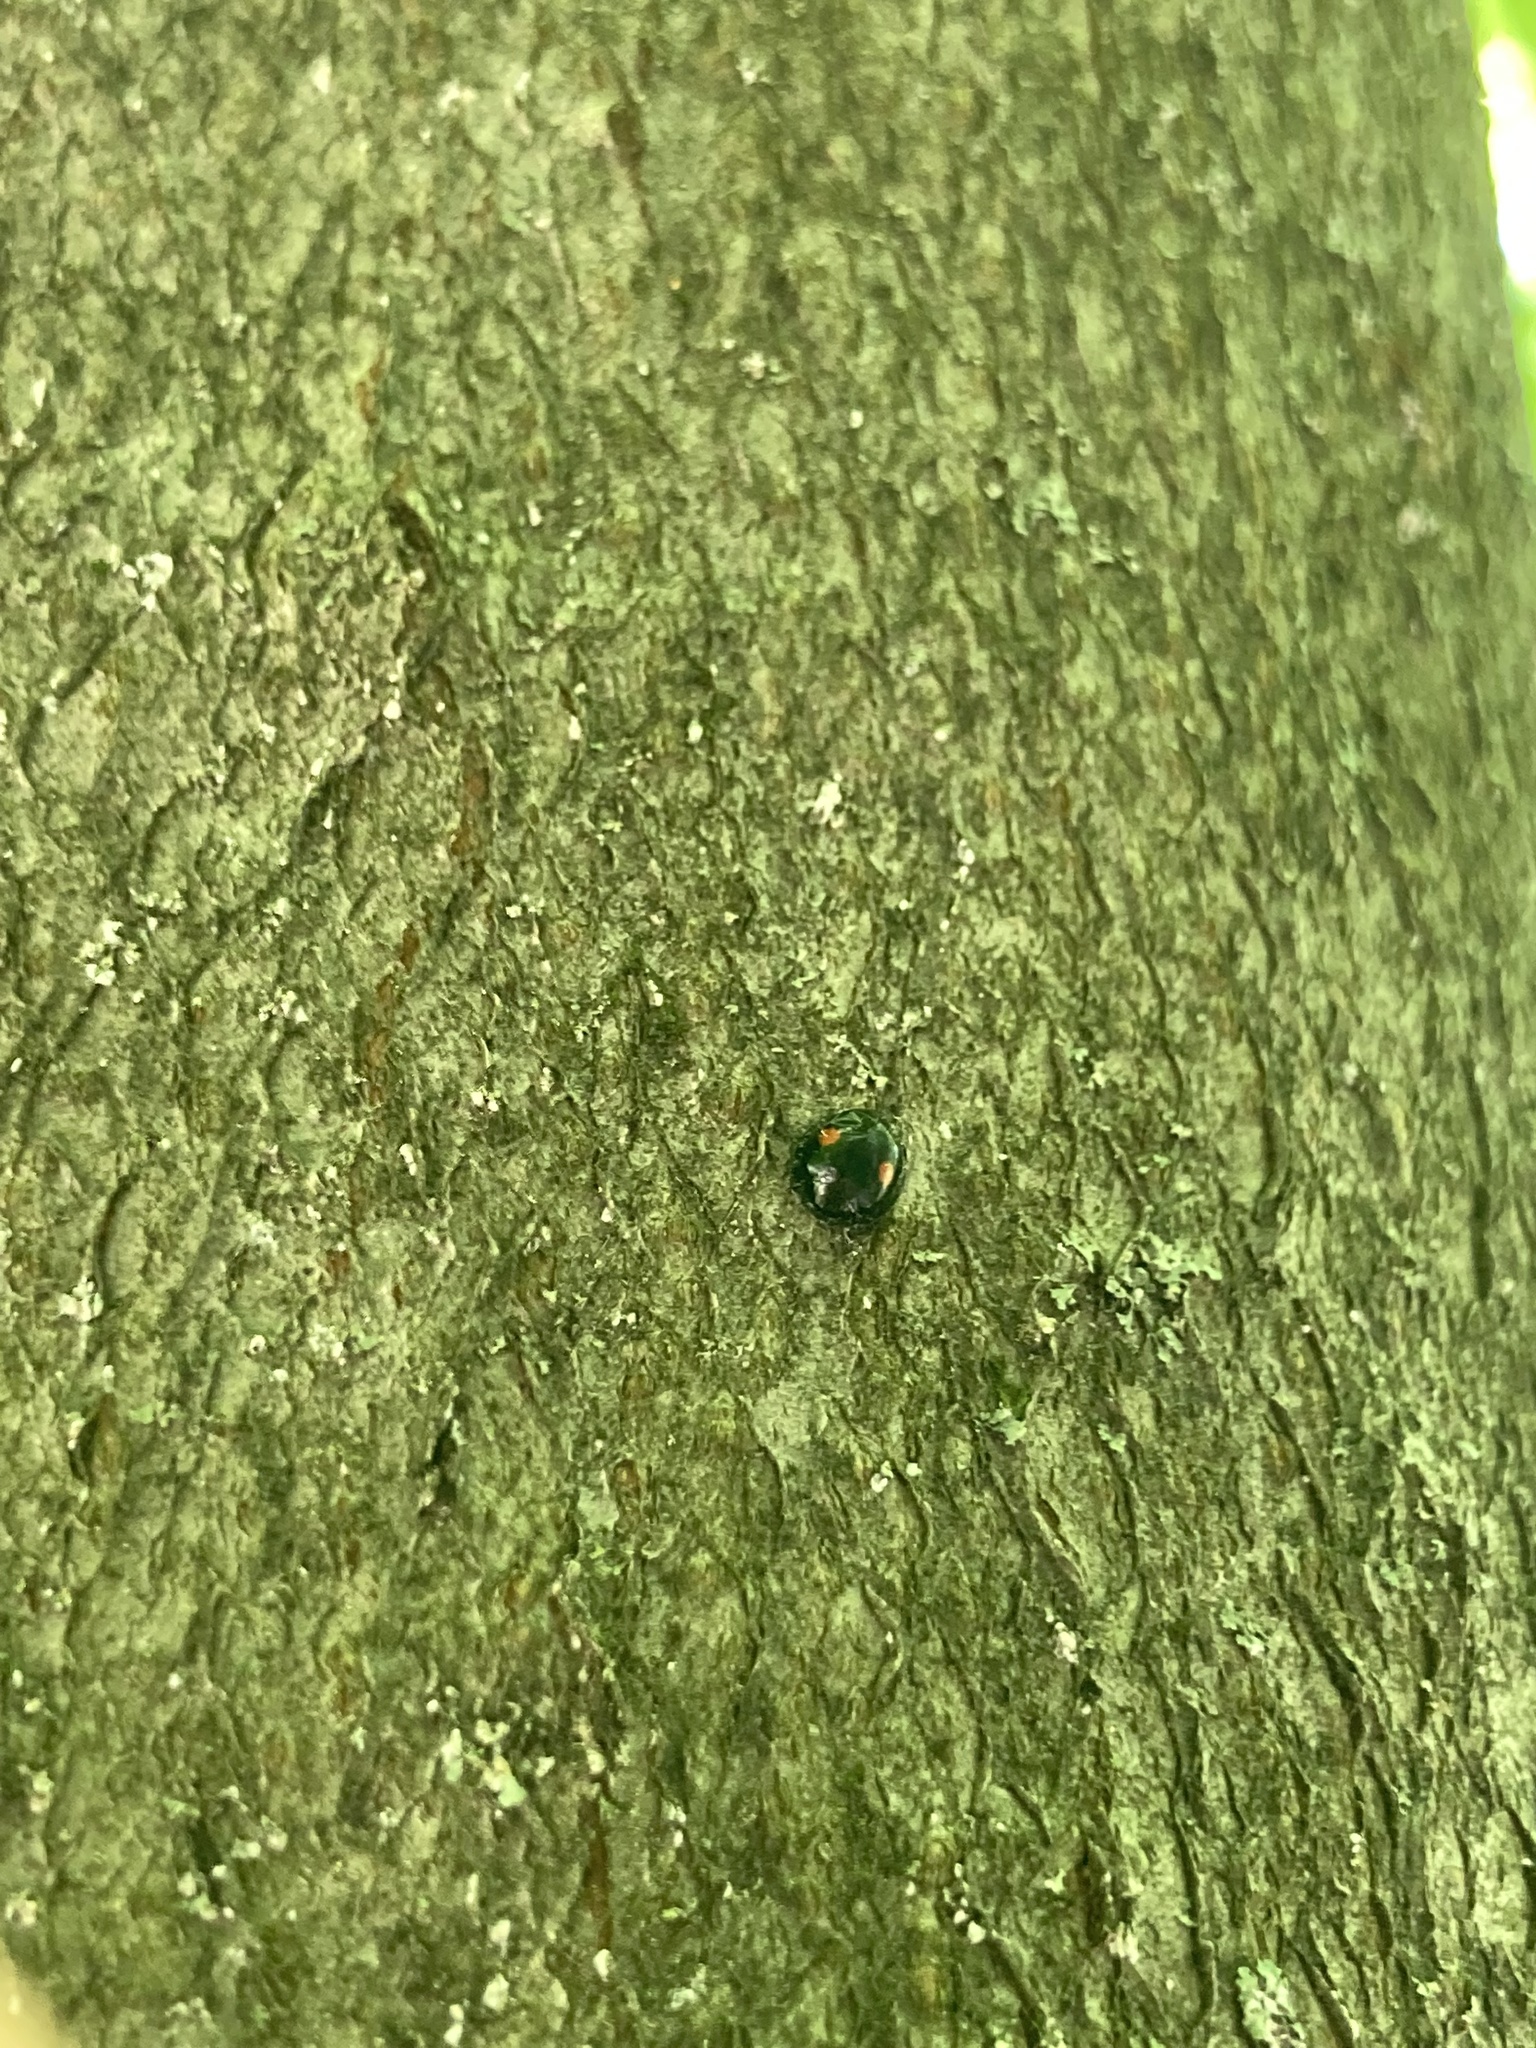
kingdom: Animalia
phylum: Arthropoda
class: Insecta
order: Coleoptera
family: Coccinellidae
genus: Chilocorus
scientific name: Chilocorus stigma
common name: Twicestabbed lady beetle
